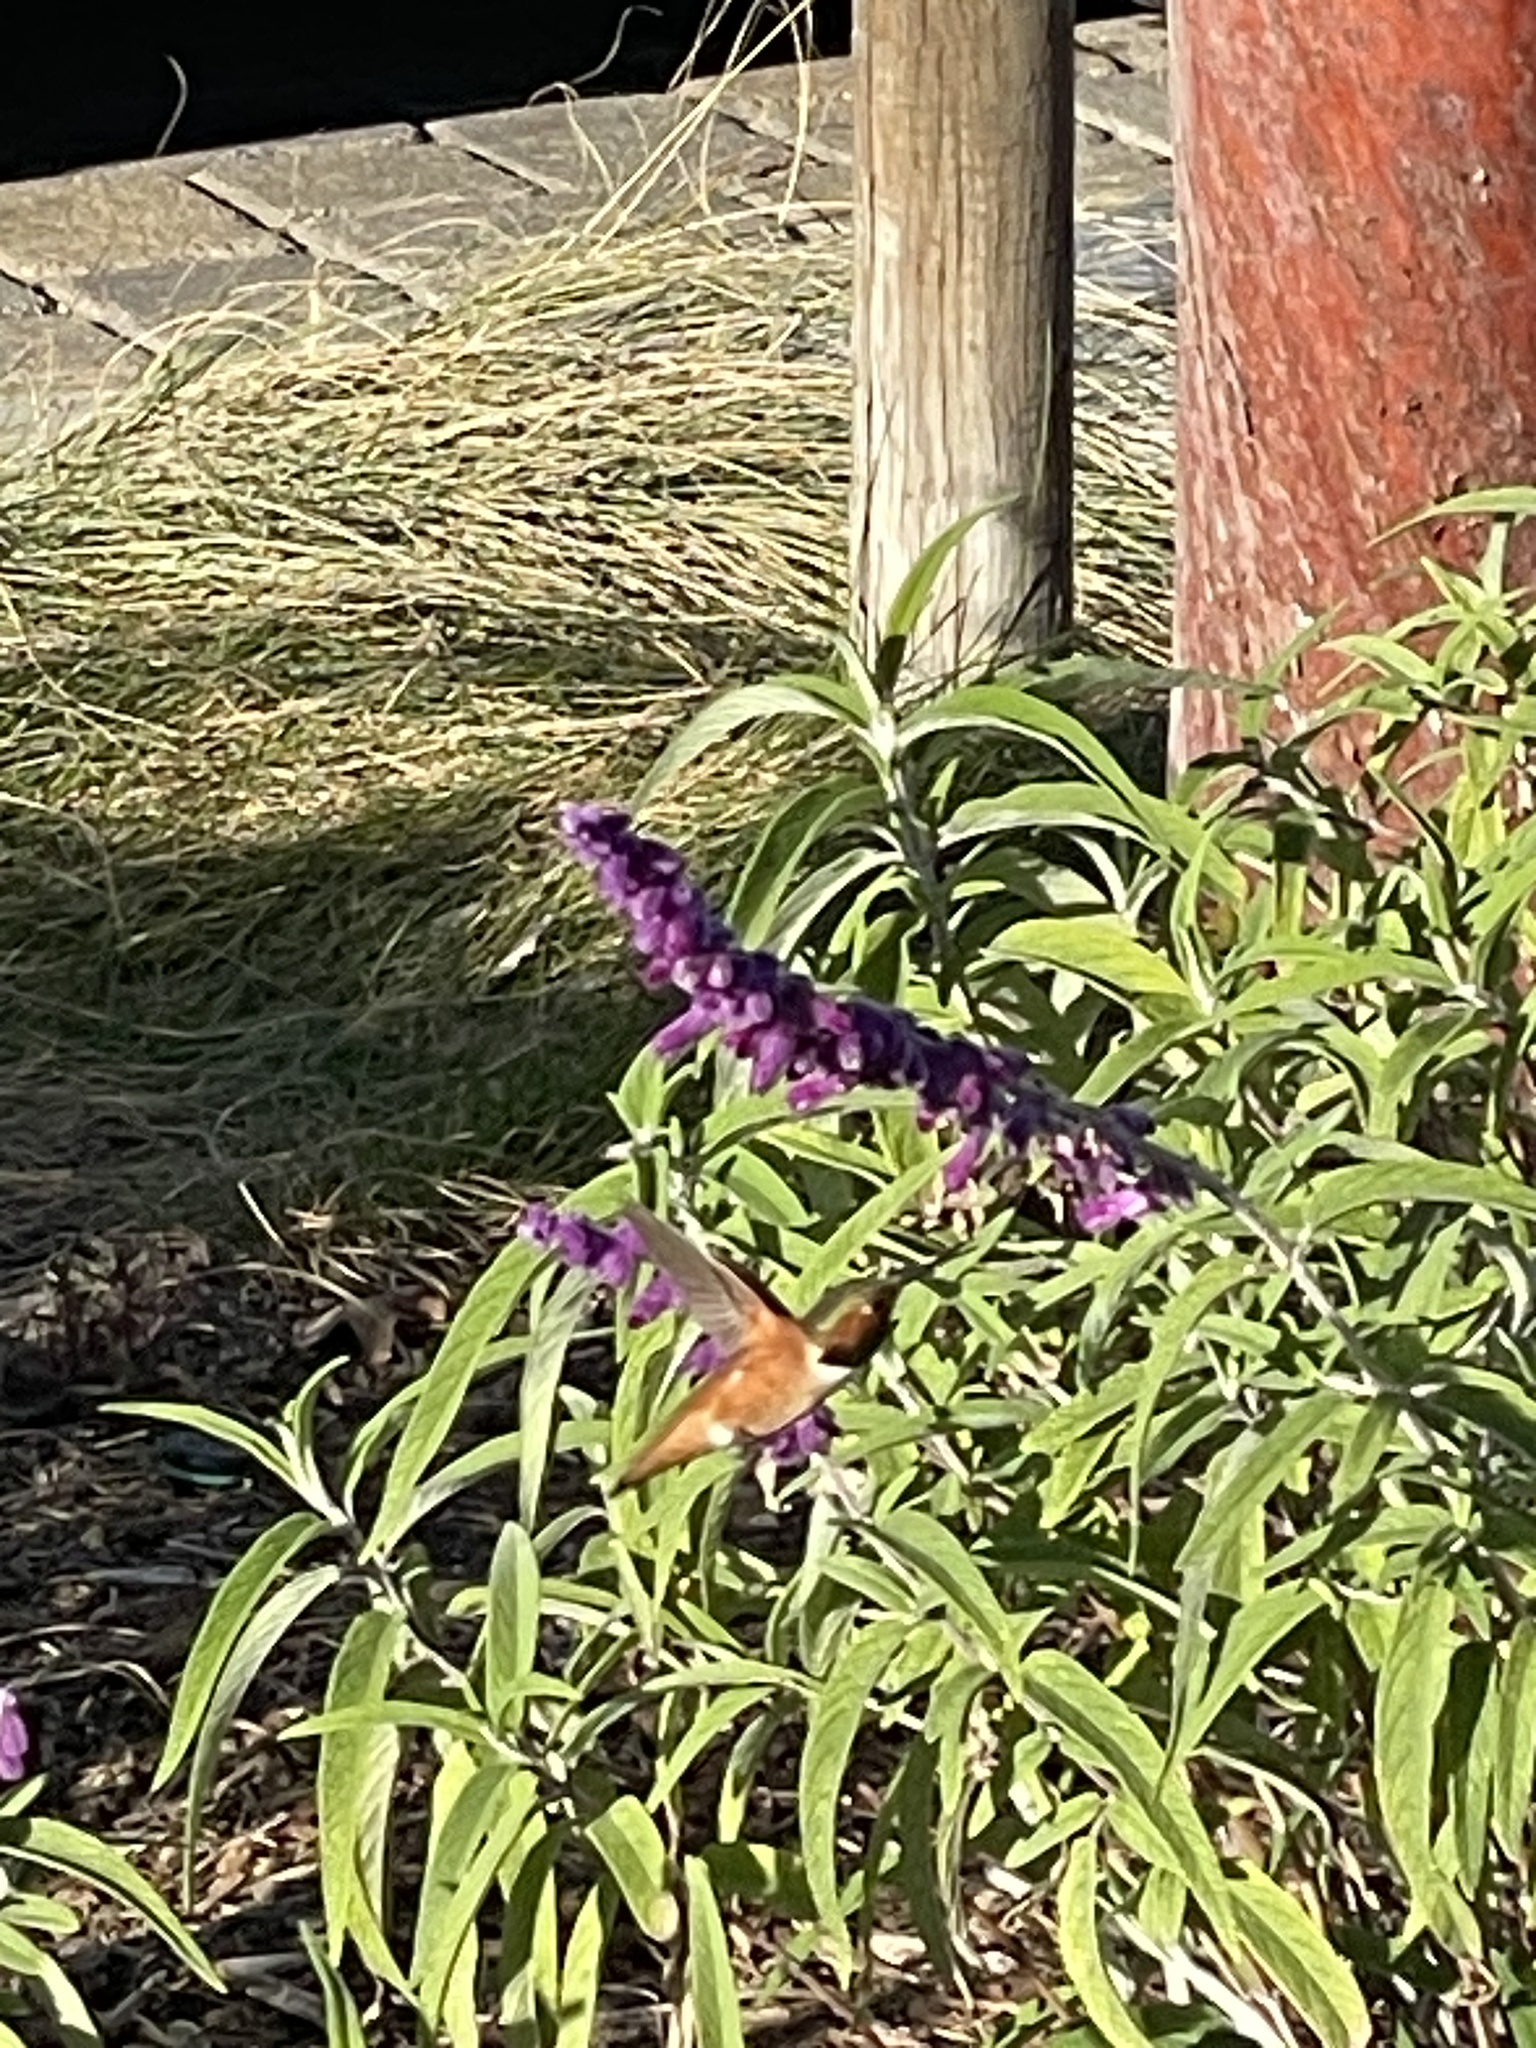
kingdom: Animalia
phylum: Chordata
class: Aves
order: Apodiformes
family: Trochilidae
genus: Selasphorus
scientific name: Selasphorus sasin
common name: Allen's hummingbird
